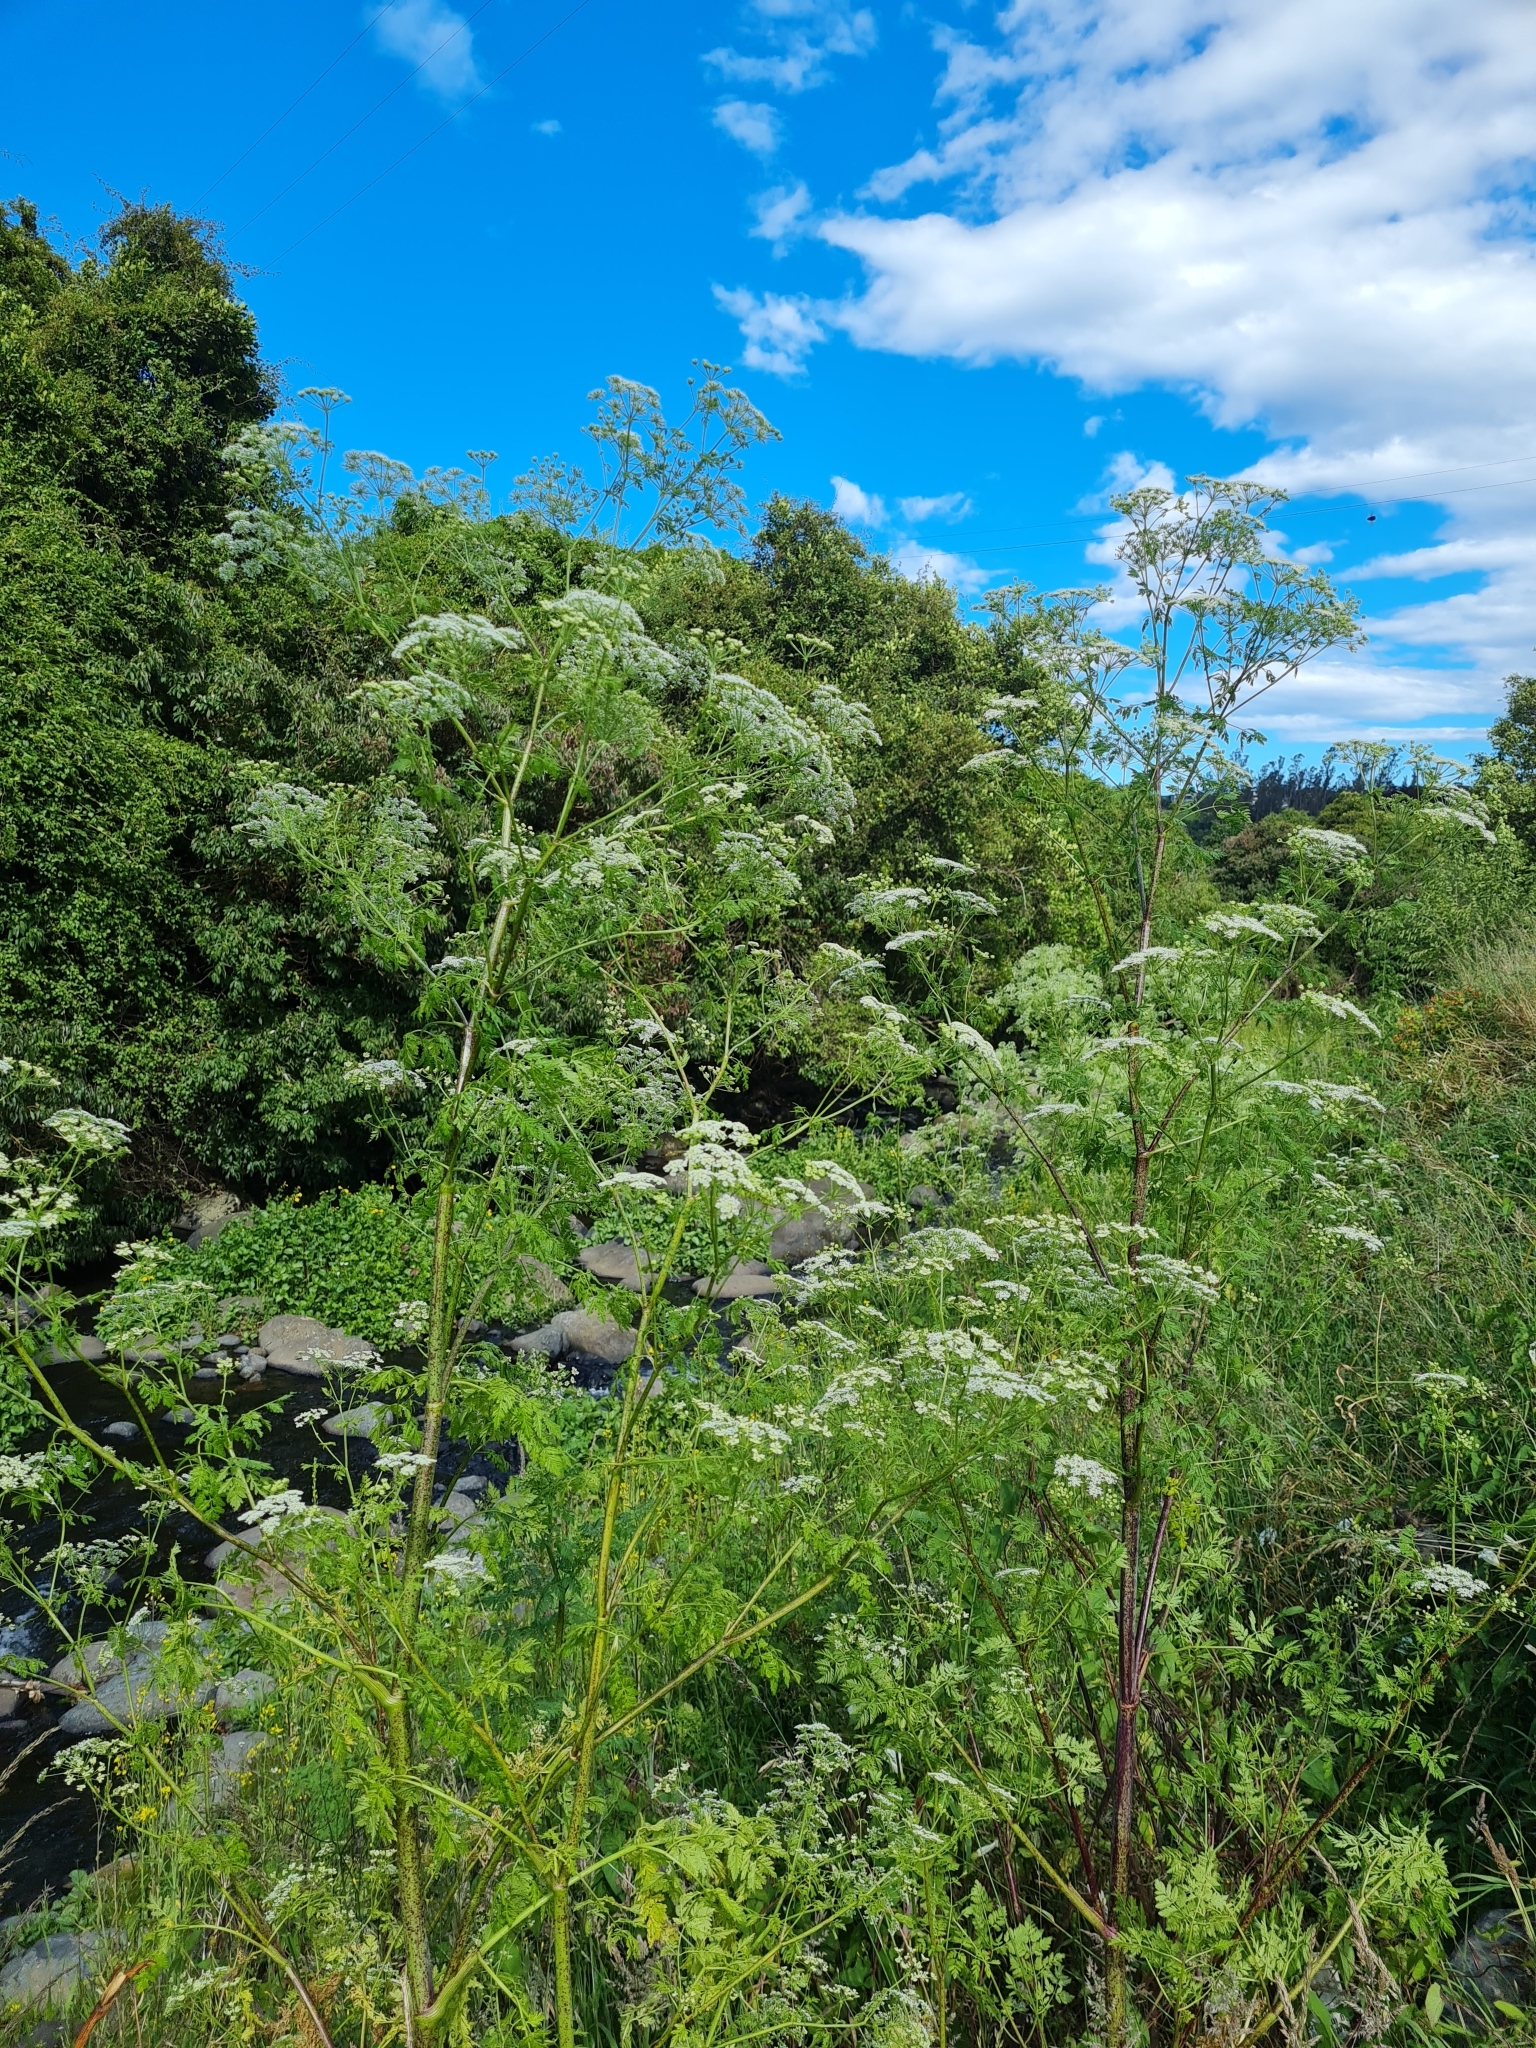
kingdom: Plantae
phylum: Tracheophyta
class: Magnoliopsida
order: Apiales
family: Apiaceae
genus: Conium
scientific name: Conium maculatum
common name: Hemlock
